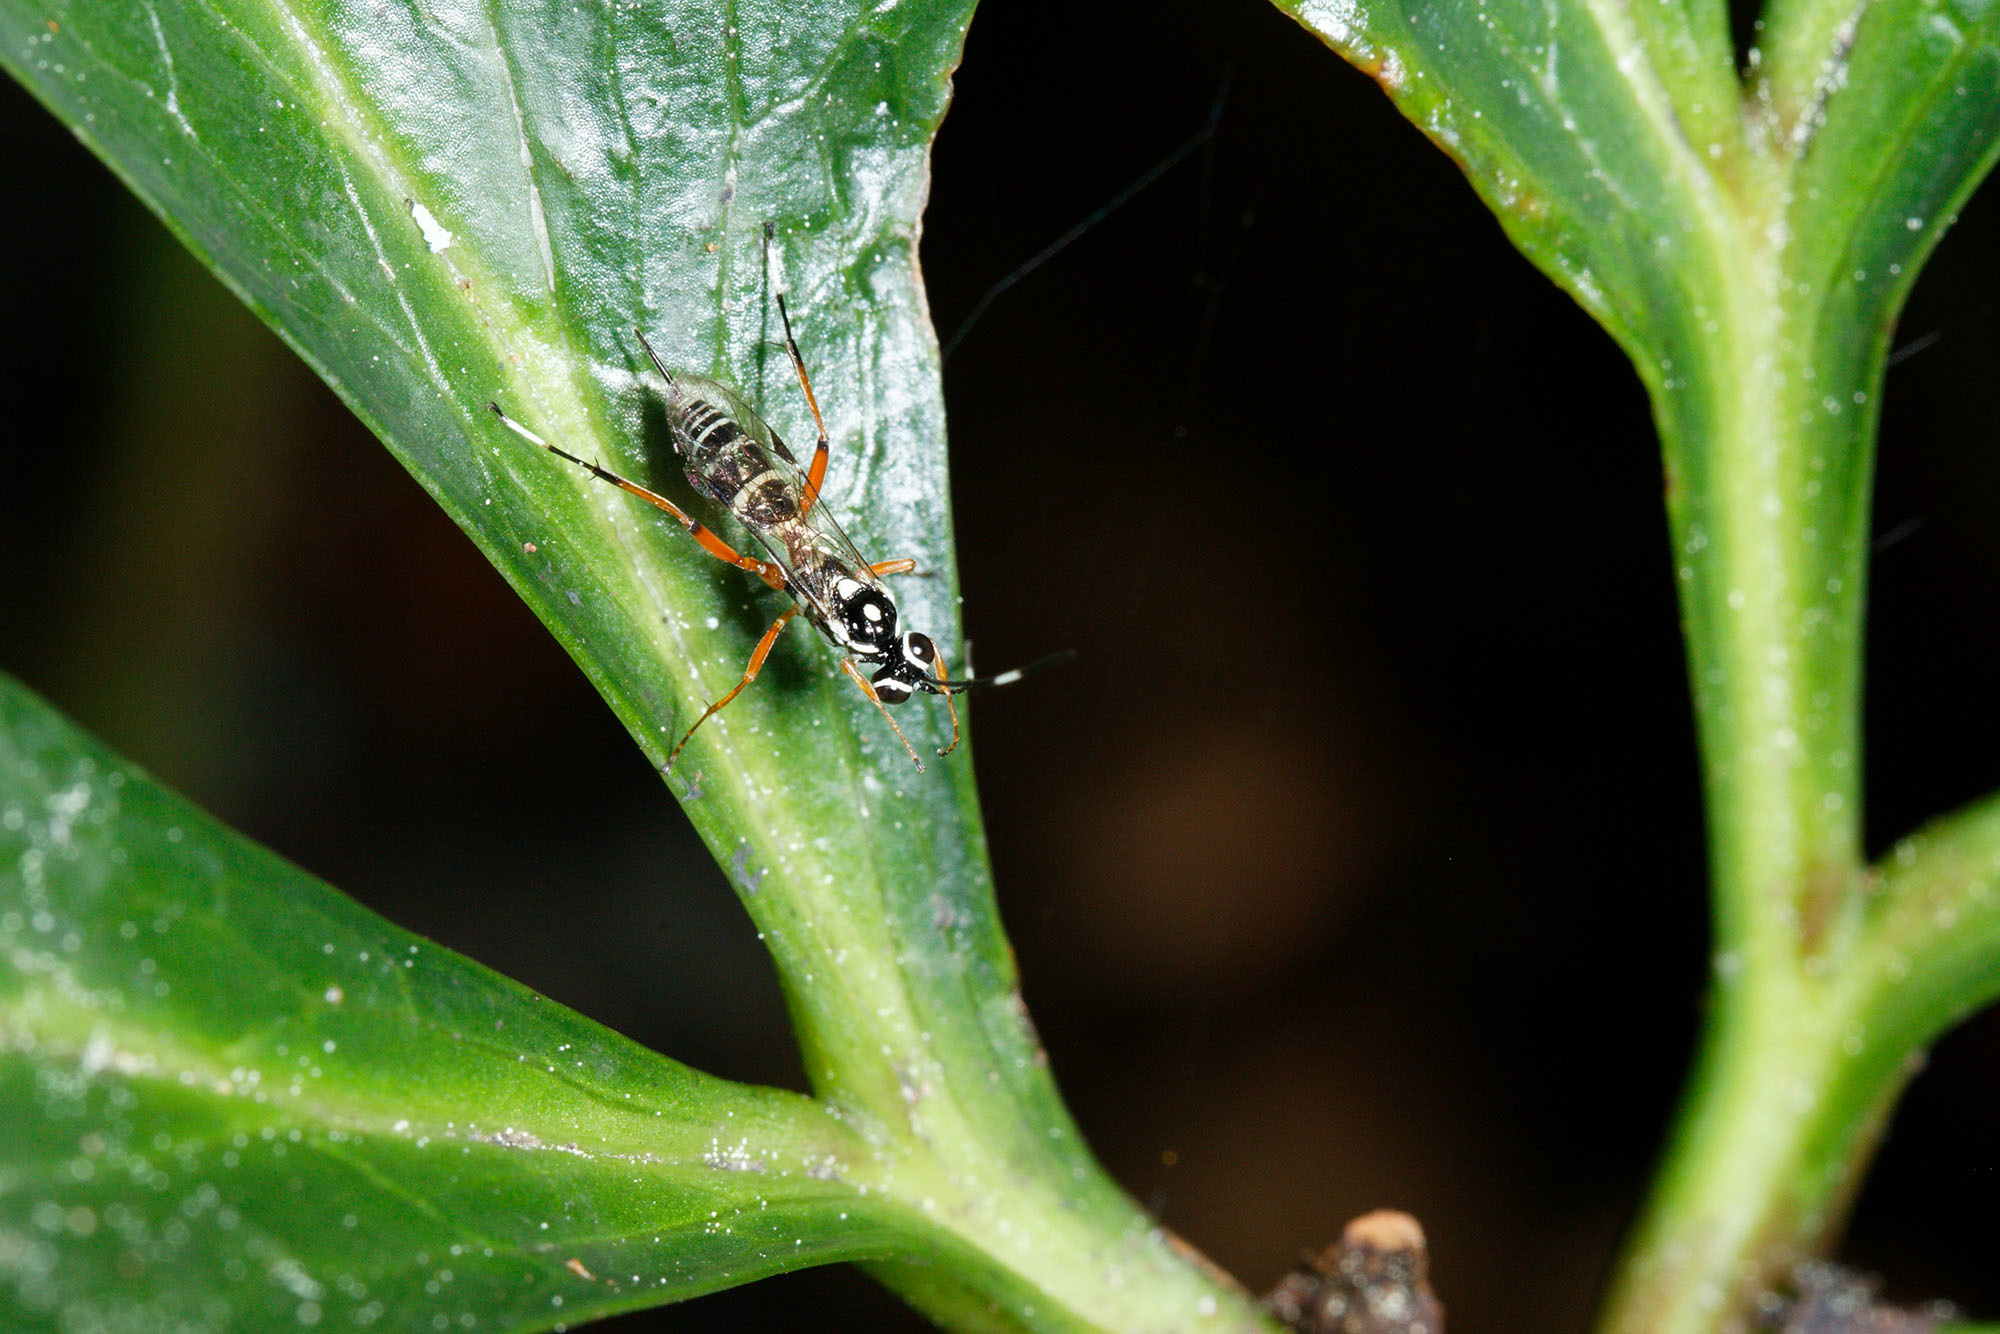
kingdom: Animalia
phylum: Arthropoda
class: Insecta
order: Hymenoptera
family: Ichneumonidae
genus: Glabridorsum
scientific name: Glabridorsum stokesii
